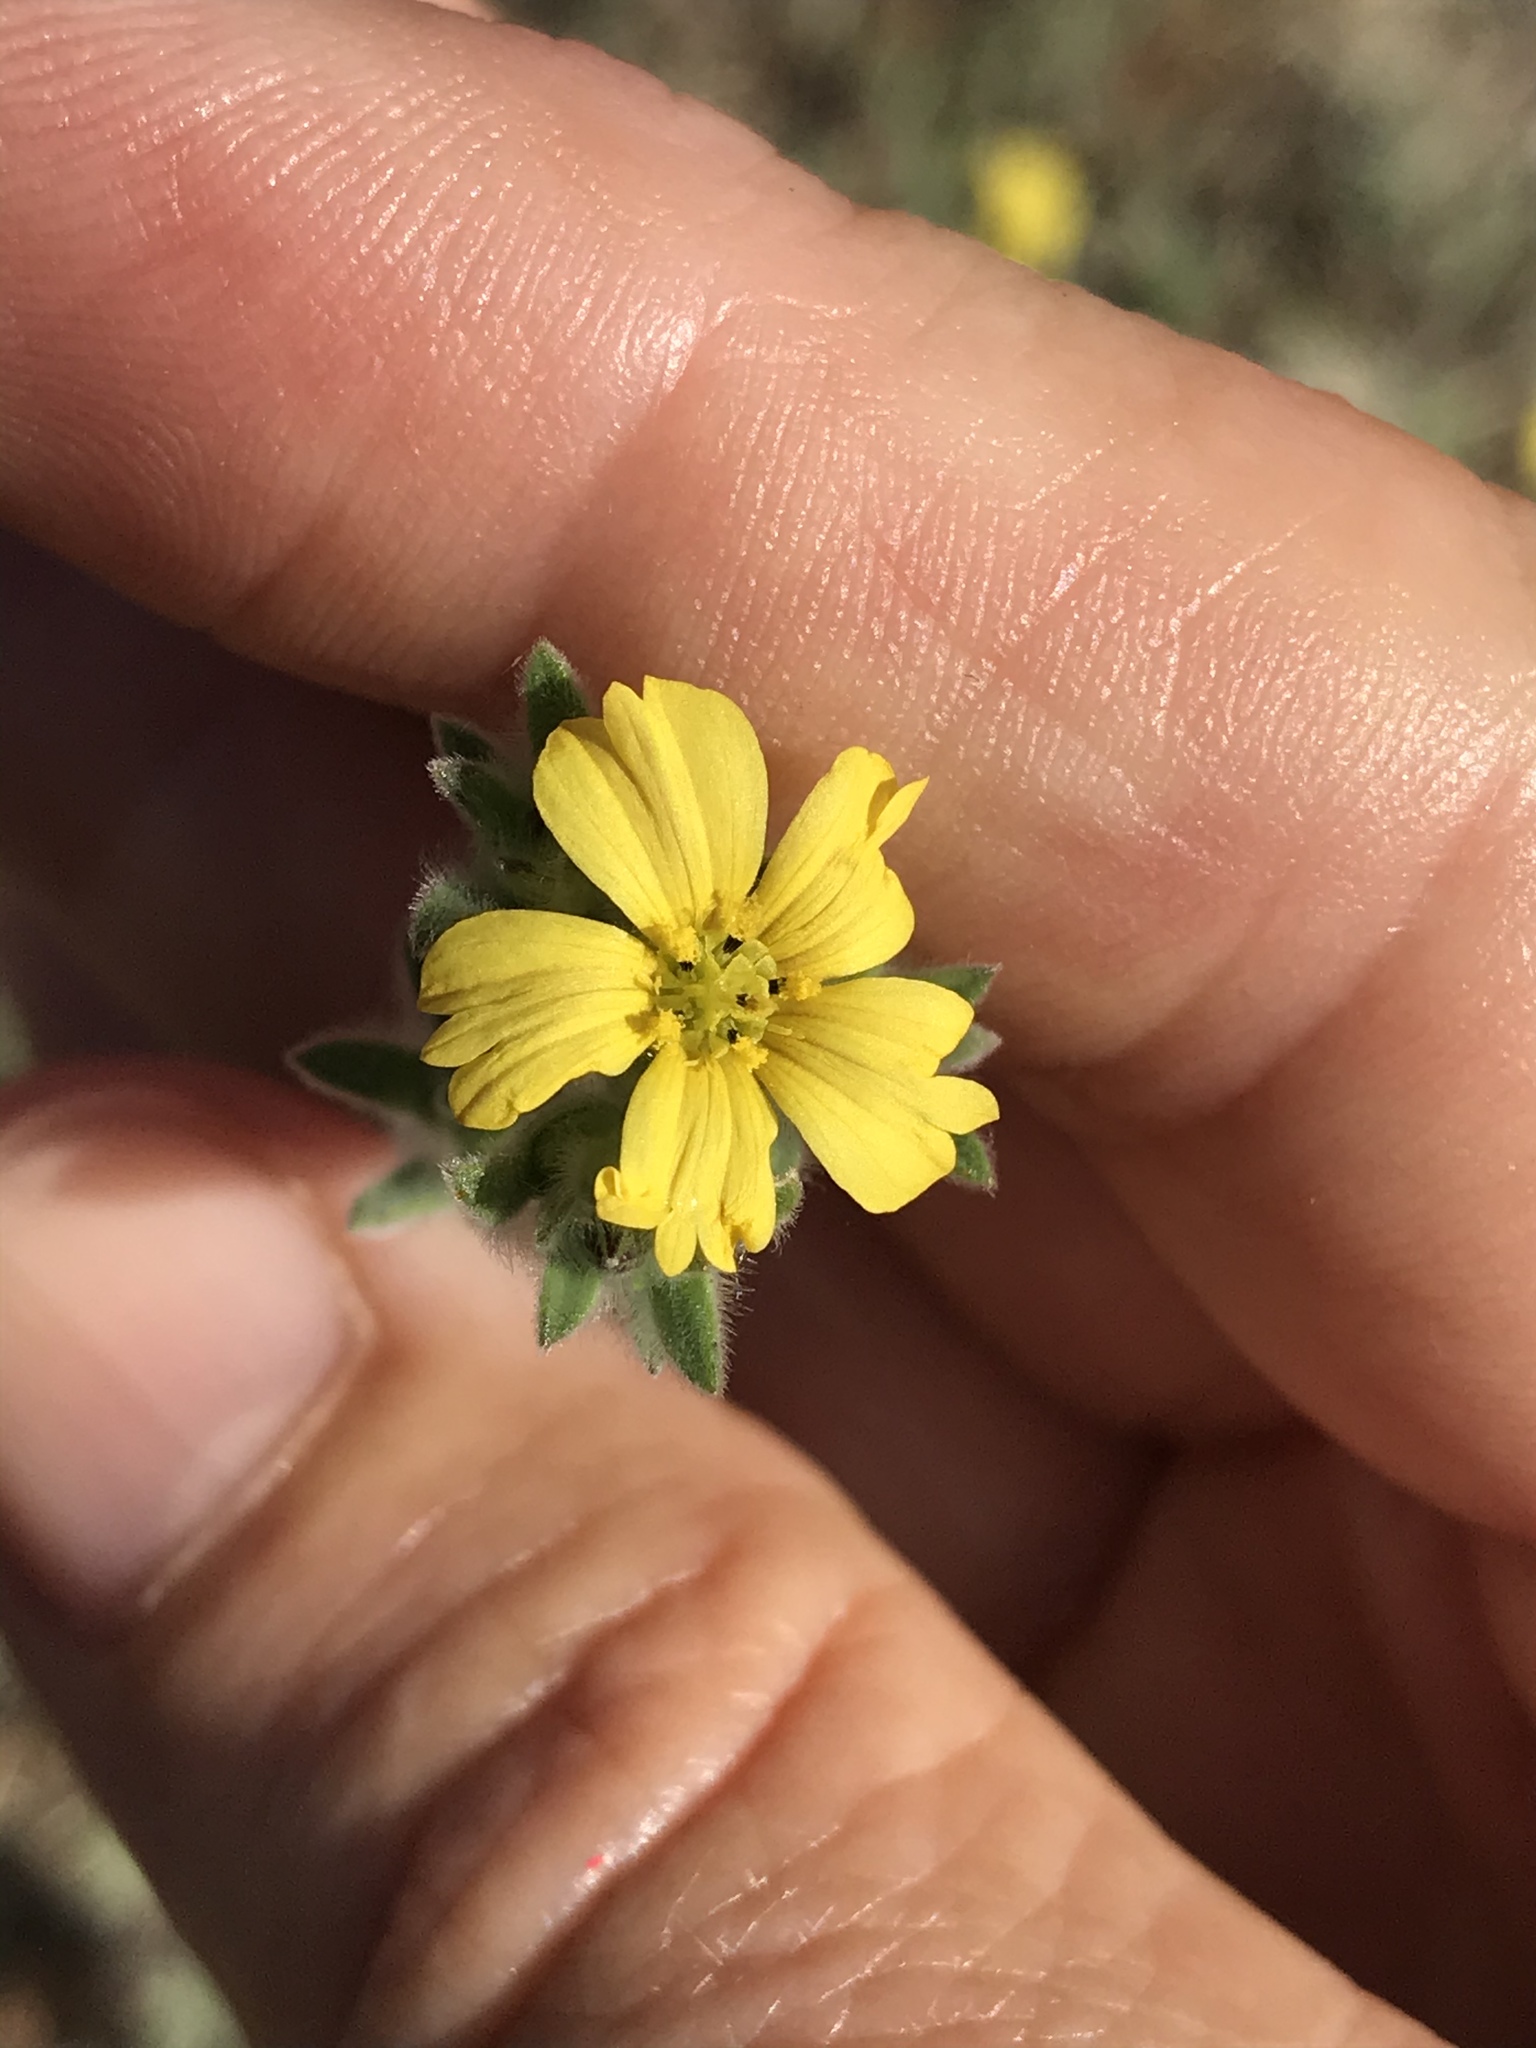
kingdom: Plantae
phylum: Tracheophyta
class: Magnoliopsida
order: Asterales
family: Asteraceae
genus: Lagophylla
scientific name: Lagophylla ramosissima
